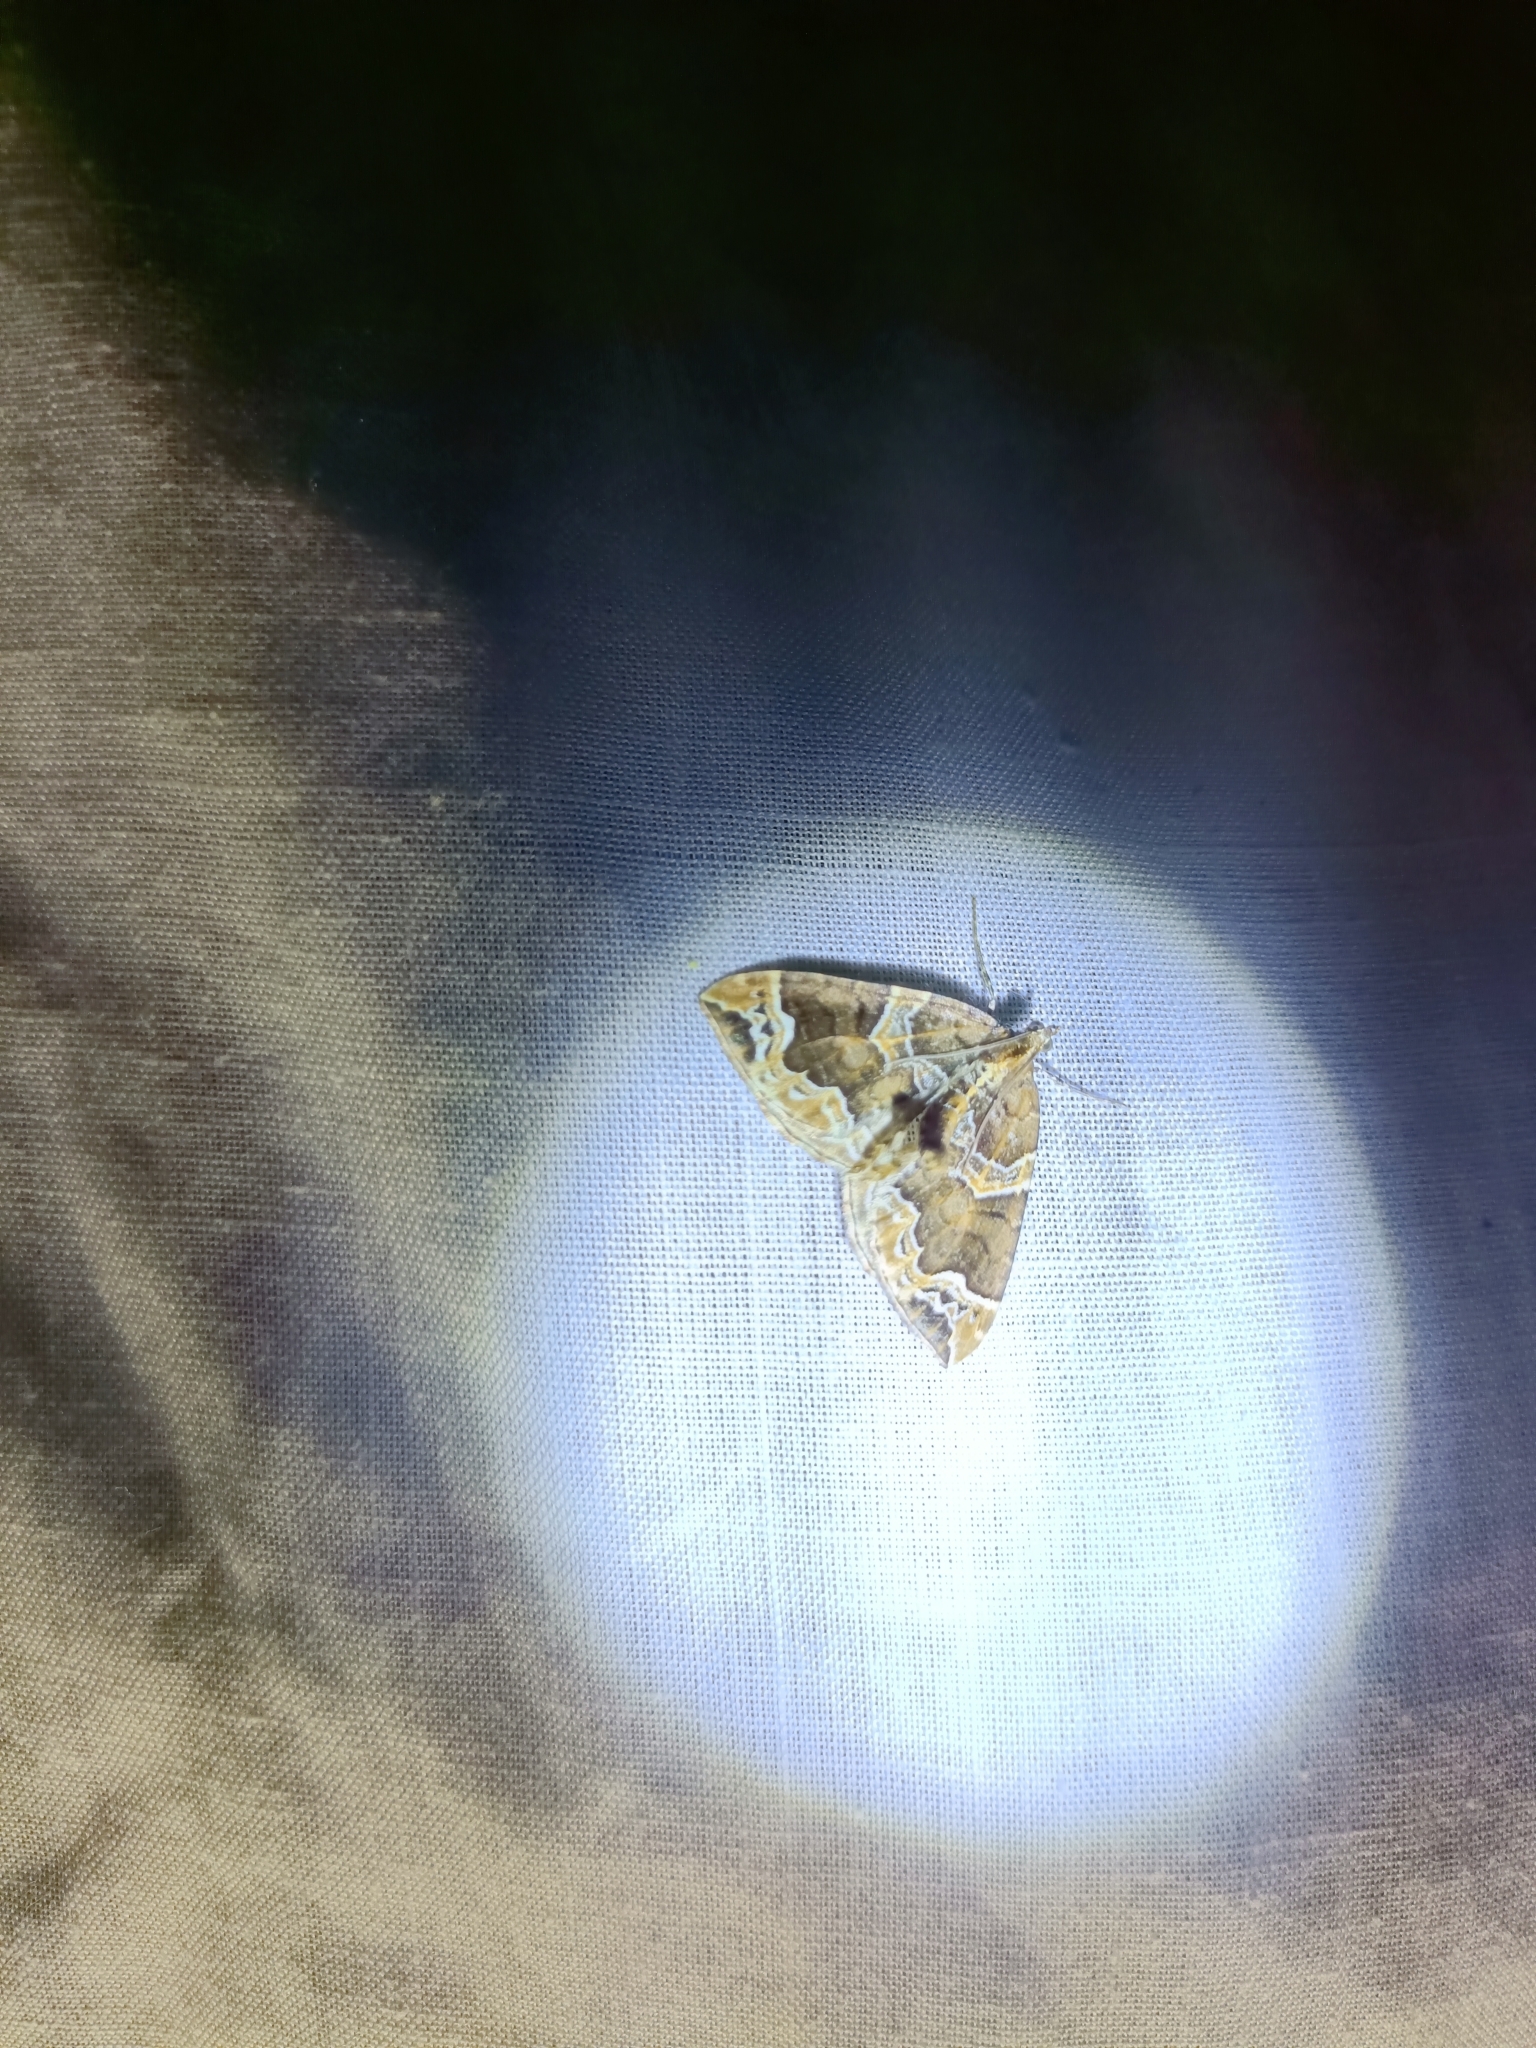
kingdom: Animalia
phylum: Arthropoda
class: Insecta
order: Lepidoptera
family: Geometridae
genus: Eulithis
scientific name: Eulithis prunata
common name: Phoenix
